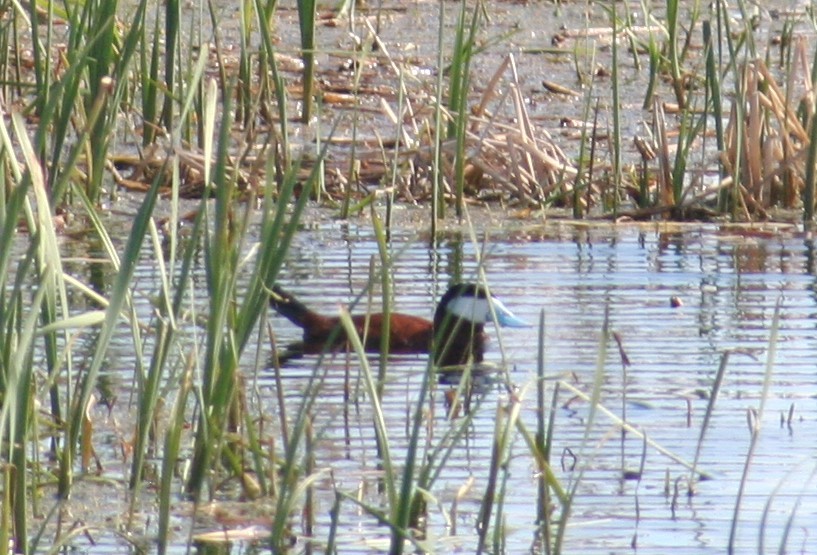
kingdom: Animalia
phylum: Chordata
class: Aves
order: Anseriformes
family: Anatidae
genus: Oxyura
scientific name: Oxyura jamaicensis
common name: Ruddy duck
